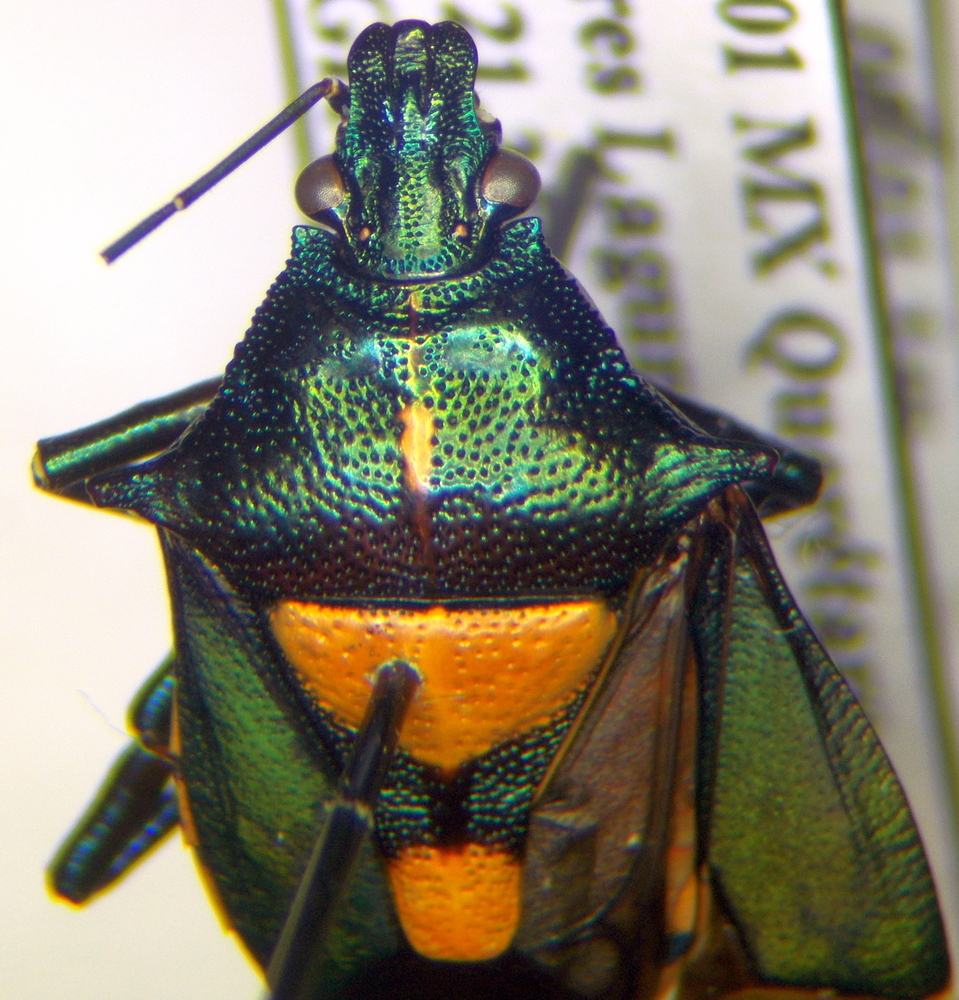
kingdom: Animalia
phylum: Arthropoda
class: Insecta
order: Hemiptera
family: Pentatomidae
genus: Euthyrhynchus
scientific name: Euthyrhynchus floridanus
